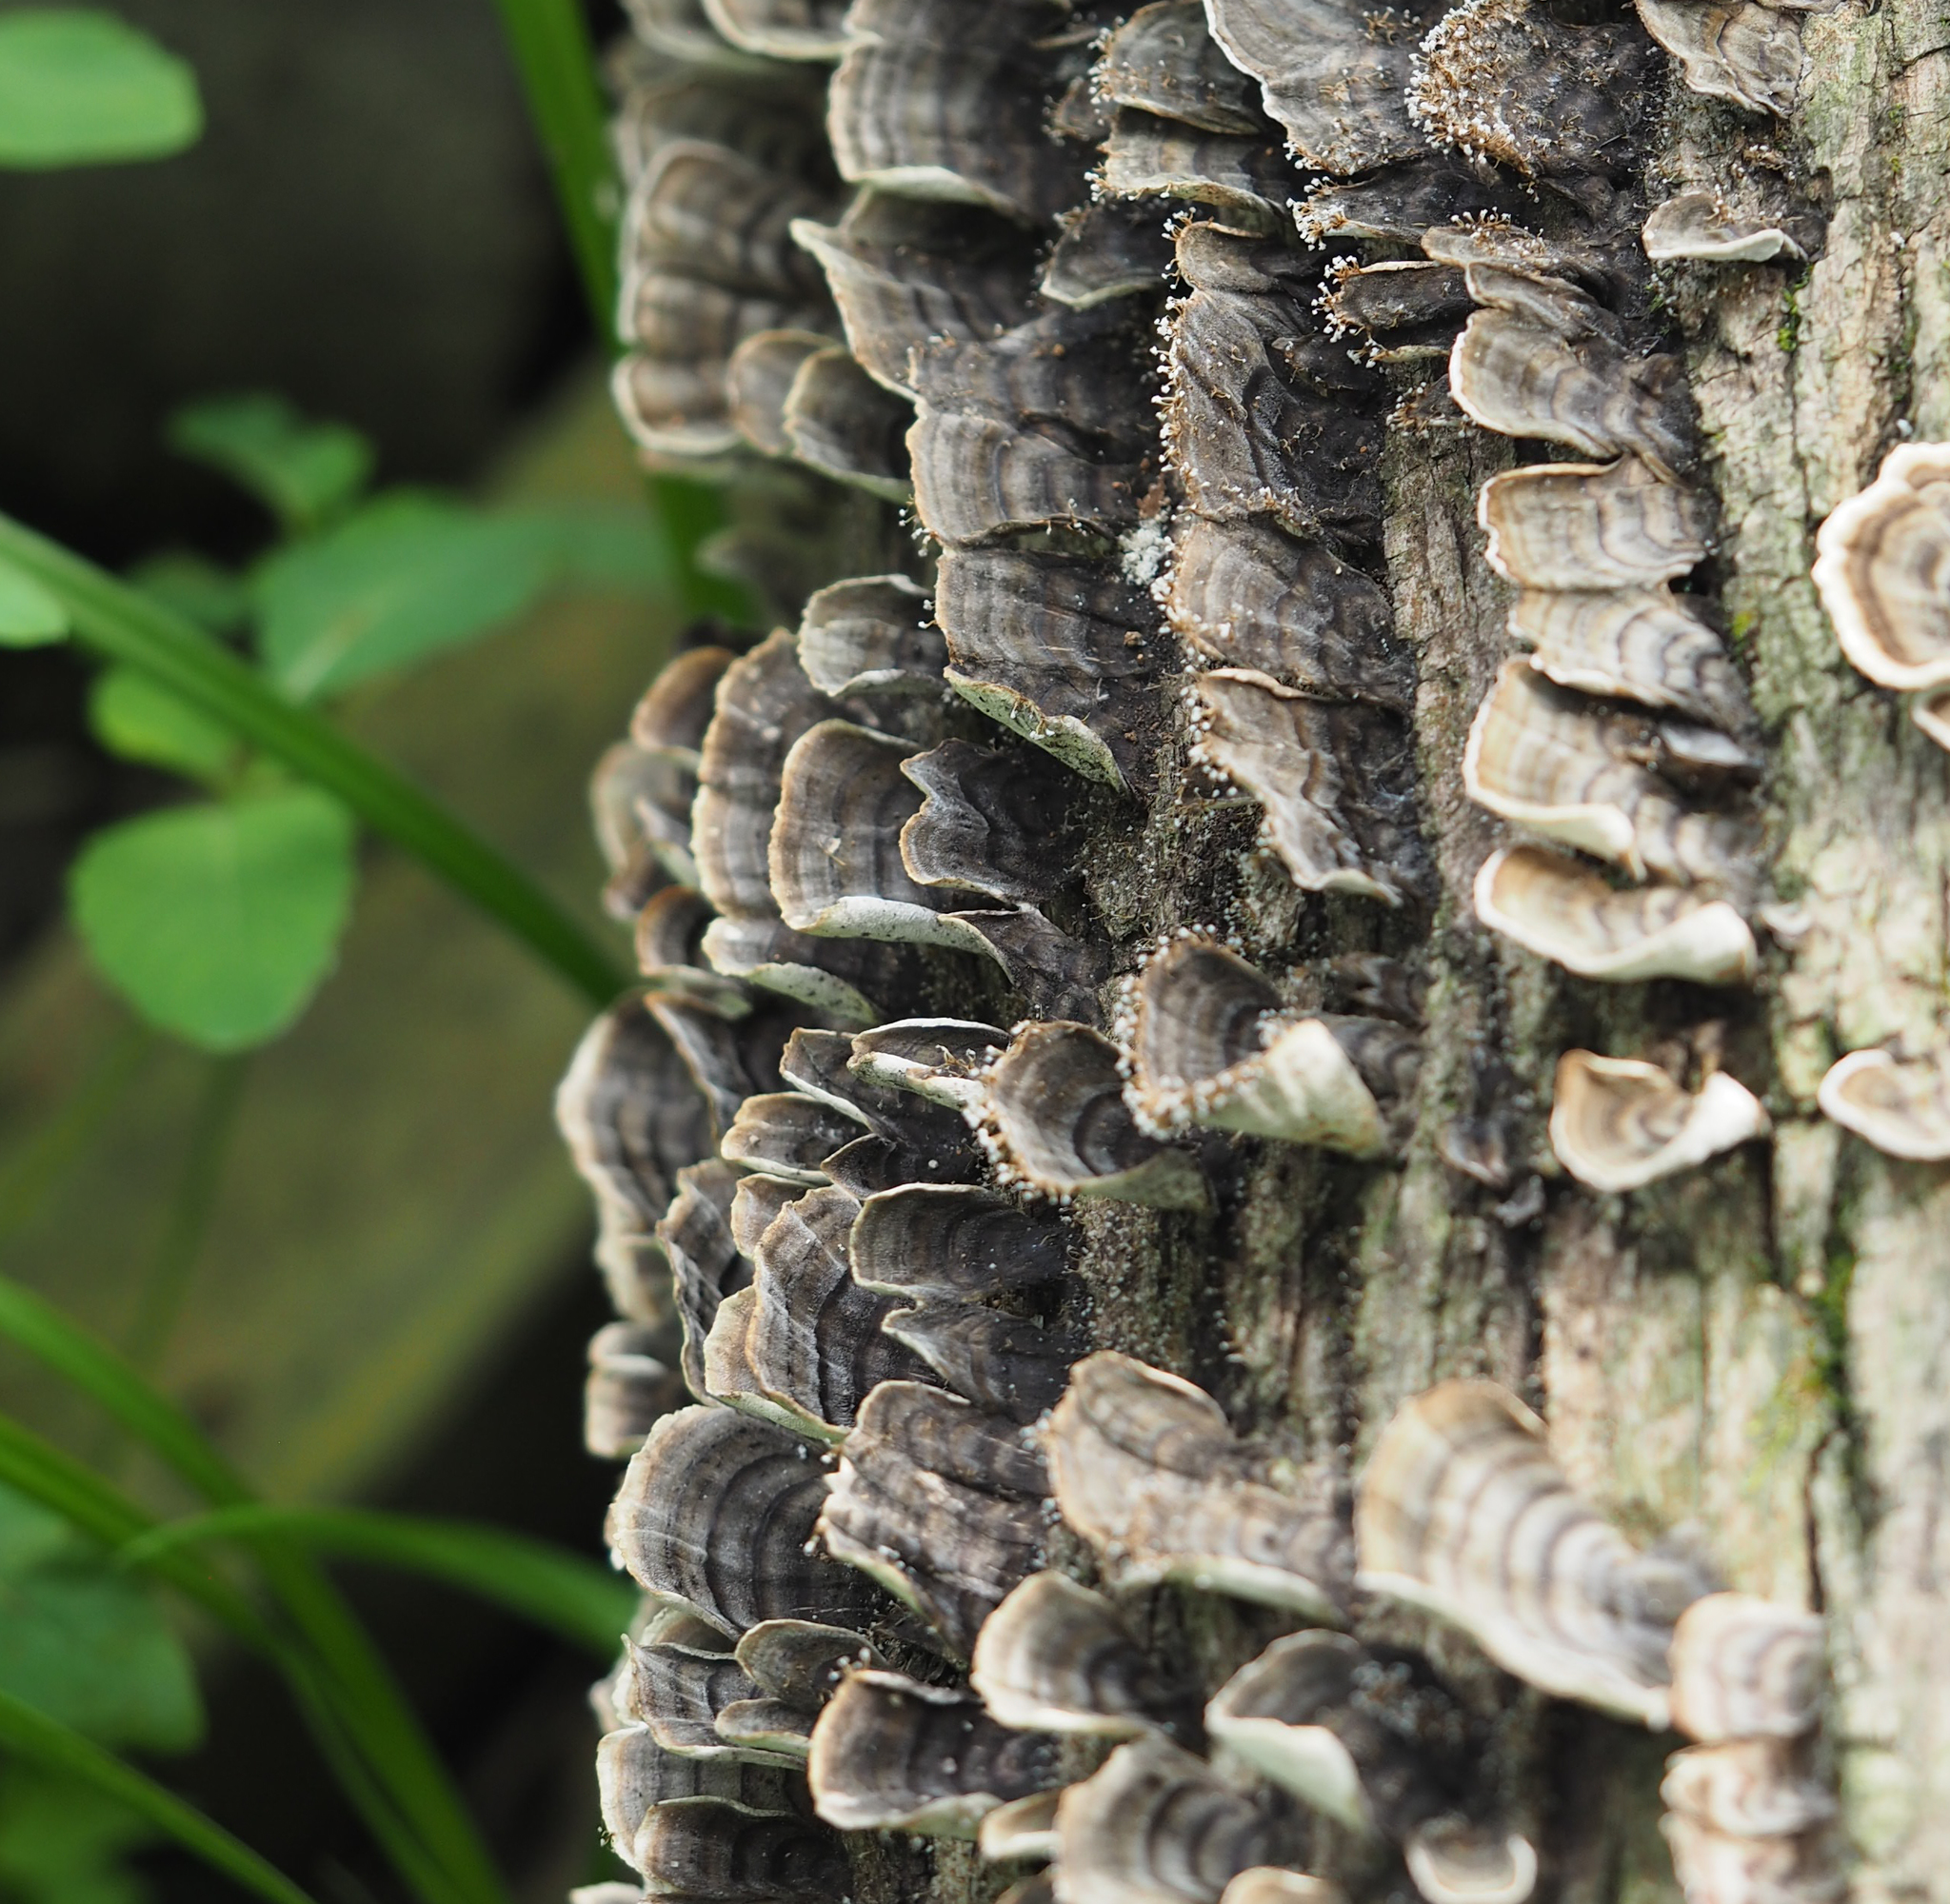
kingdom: Fungi
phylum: Basidiomycota
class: Agaricomycetes
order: Polyporales
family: Polyporaceae
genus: Trametes
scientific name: Trametes versicolor
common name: Turkeytail
